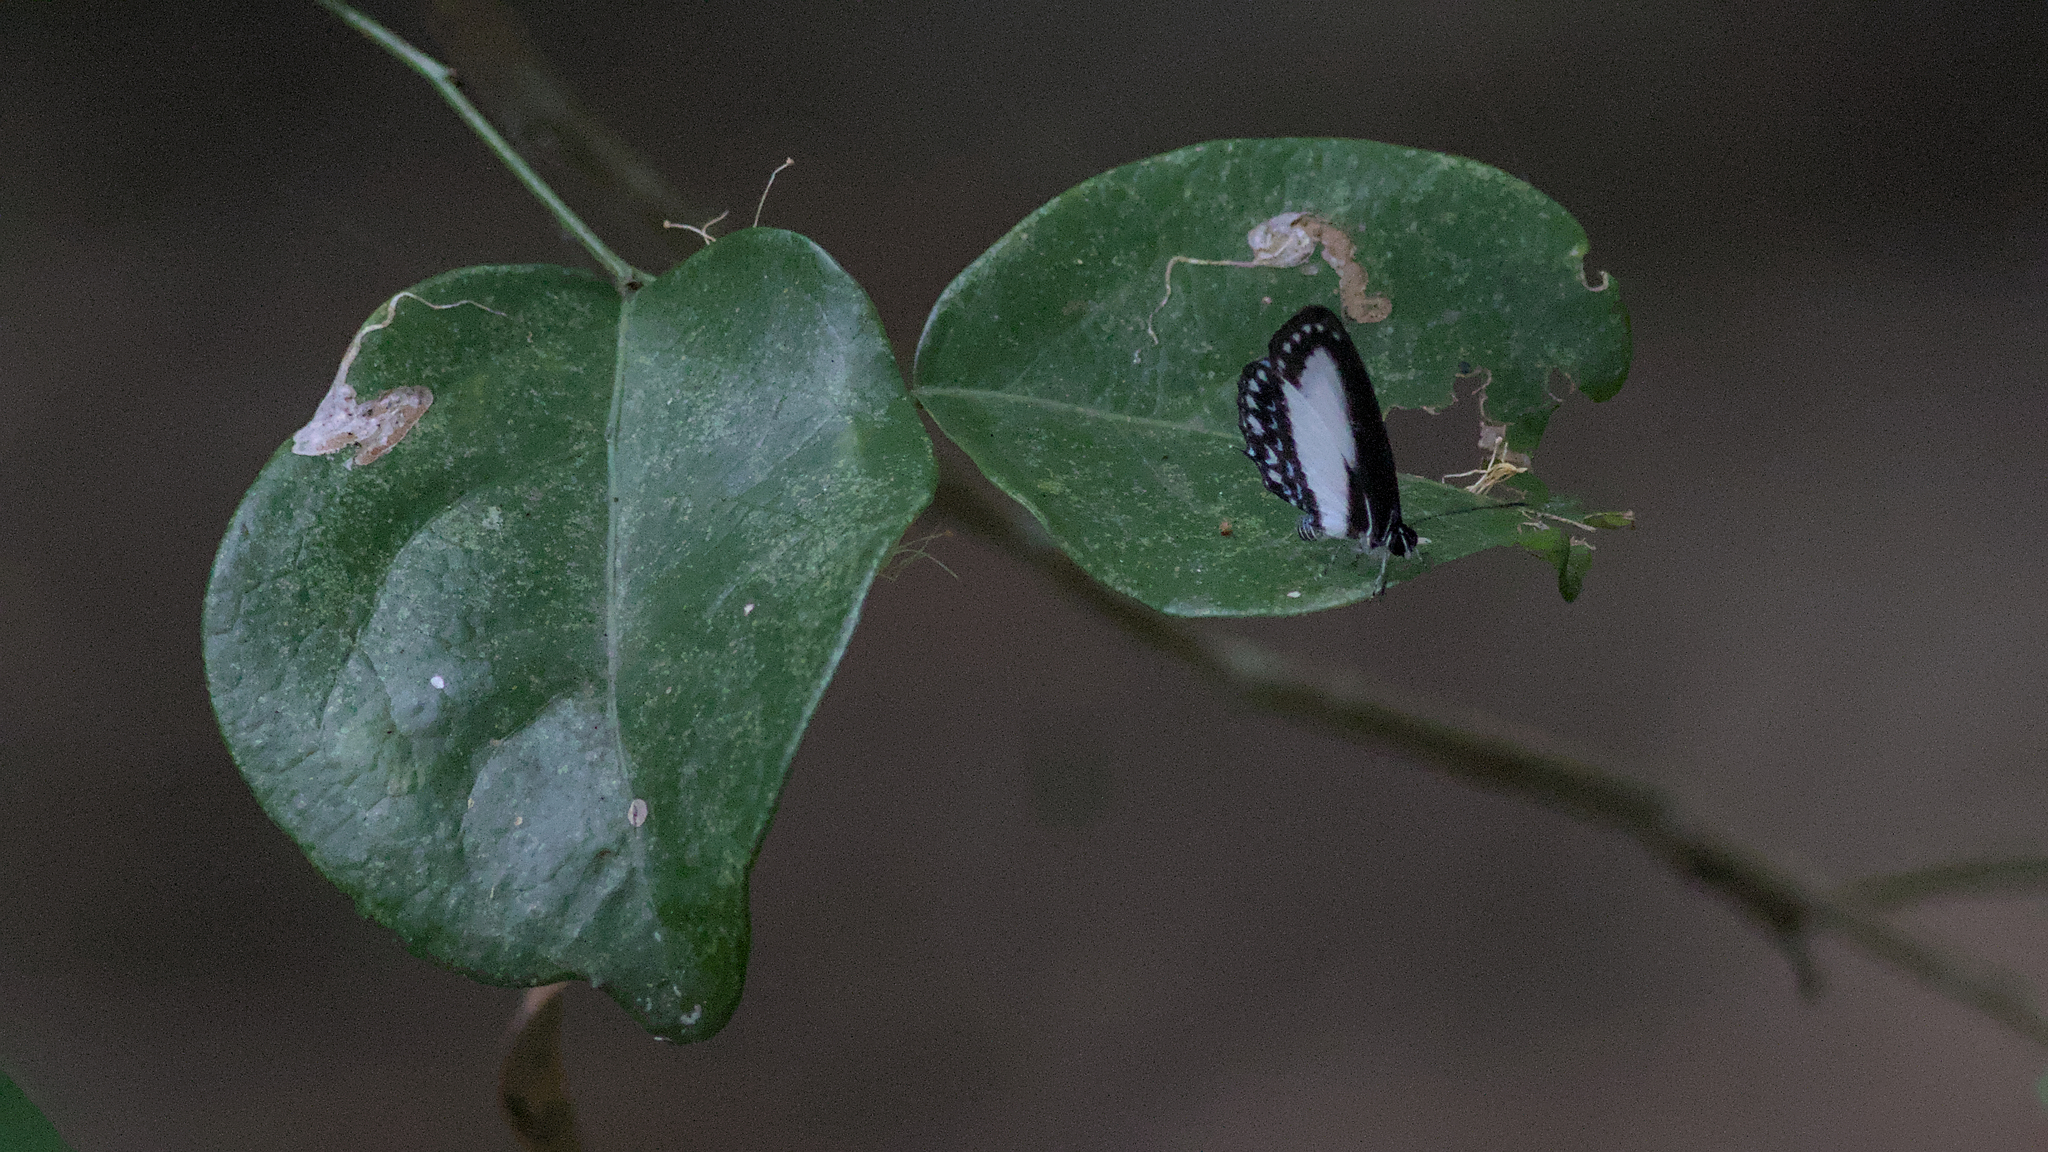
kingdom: Animalia
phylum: Arthropoda
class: Insecta
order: Lepidoptera
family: Lycaenidae
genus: Jamides
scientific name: Jamides aleuas
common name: White-banded cerulean
